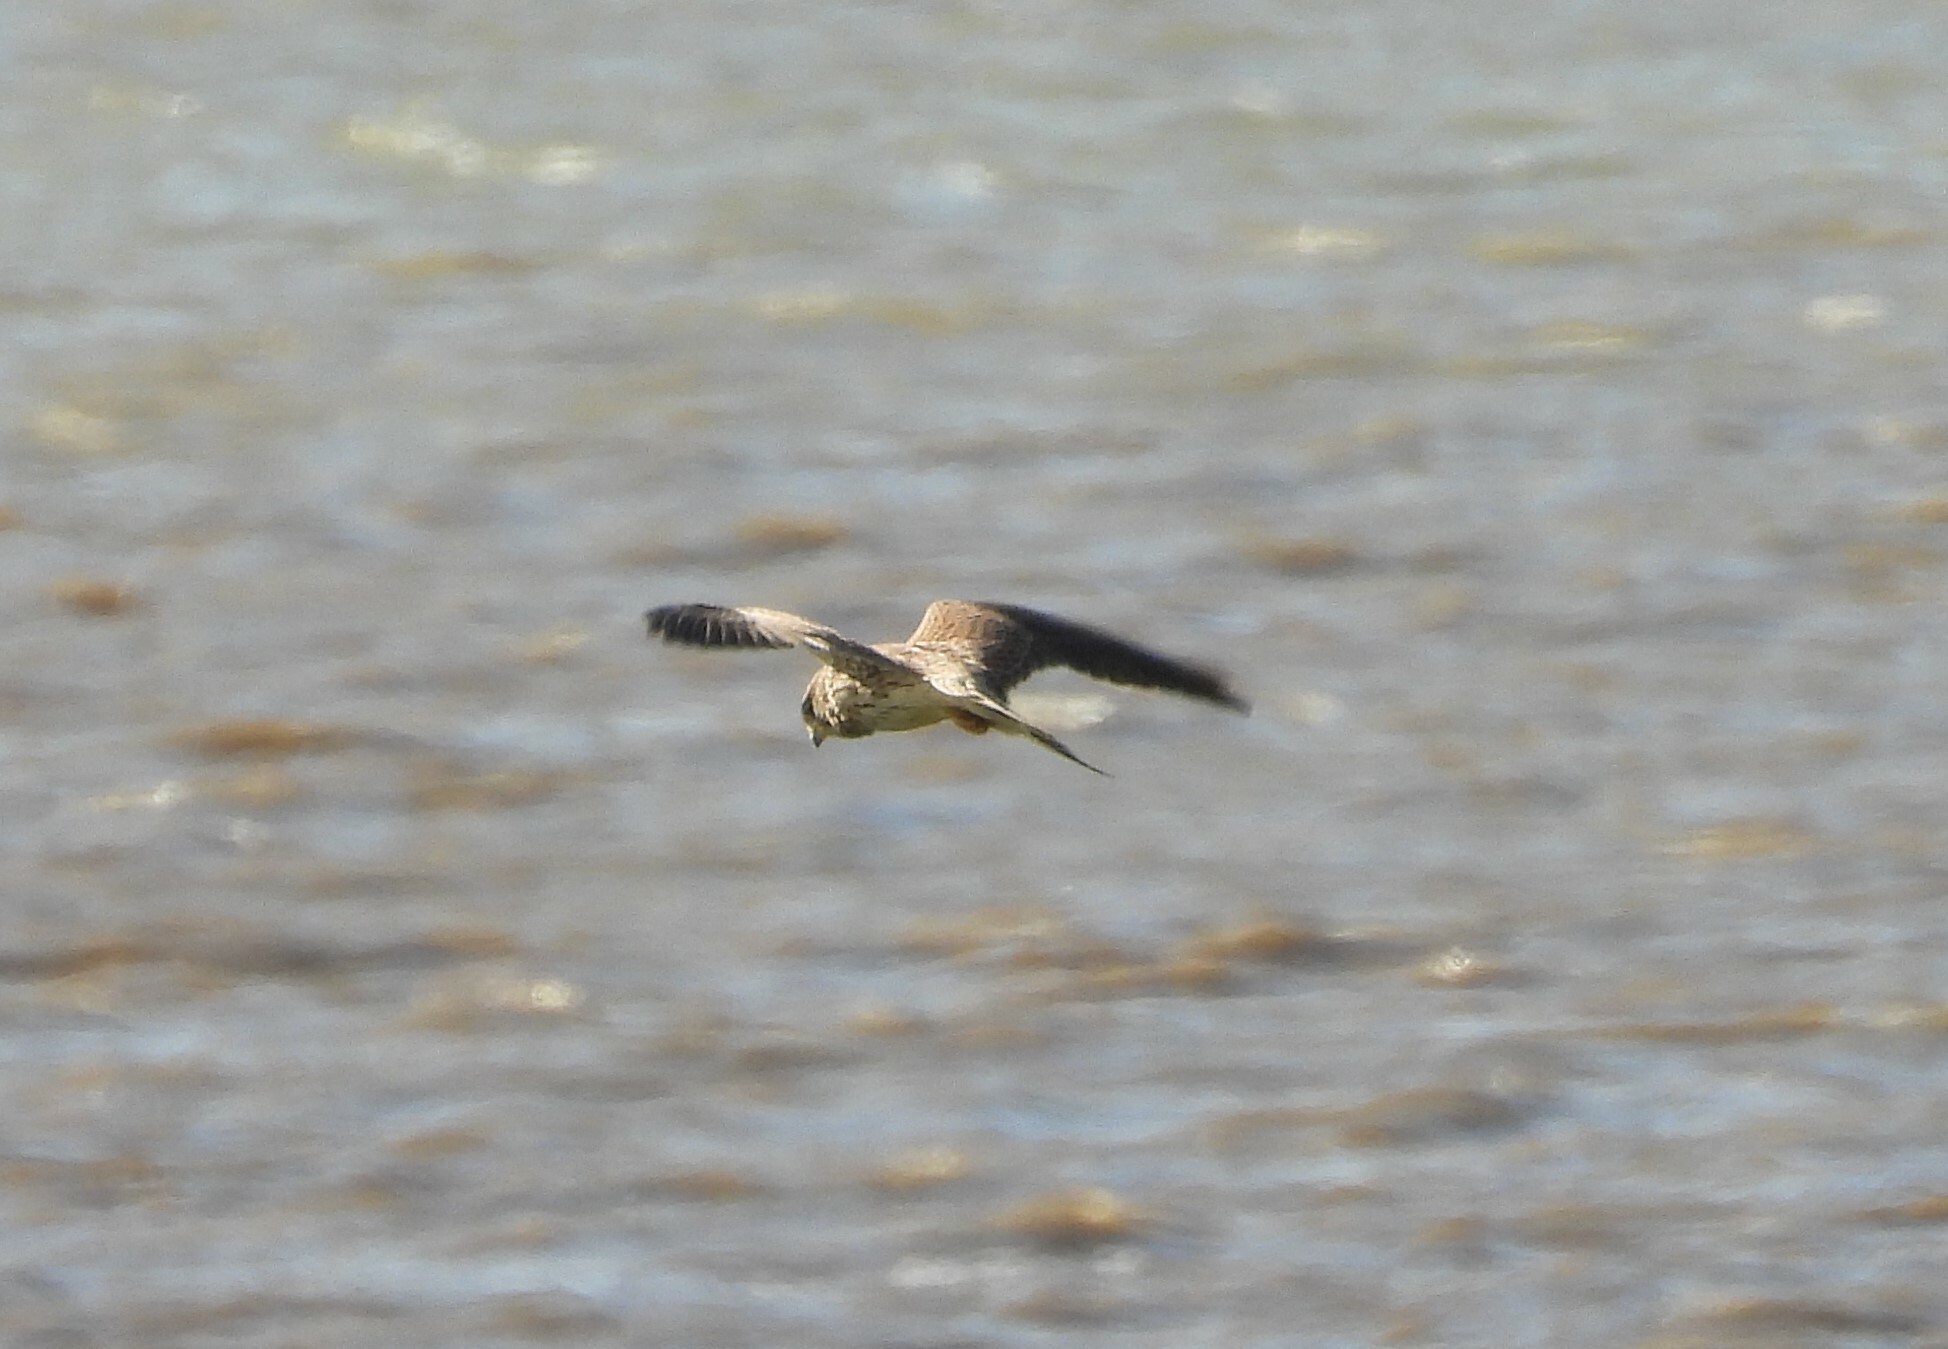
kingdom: Animalia
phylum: Chordata
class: Aves
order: Falconiformes
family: Falconidae
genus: Falco
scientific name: Falco tinnunculus
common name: Common kestrel
